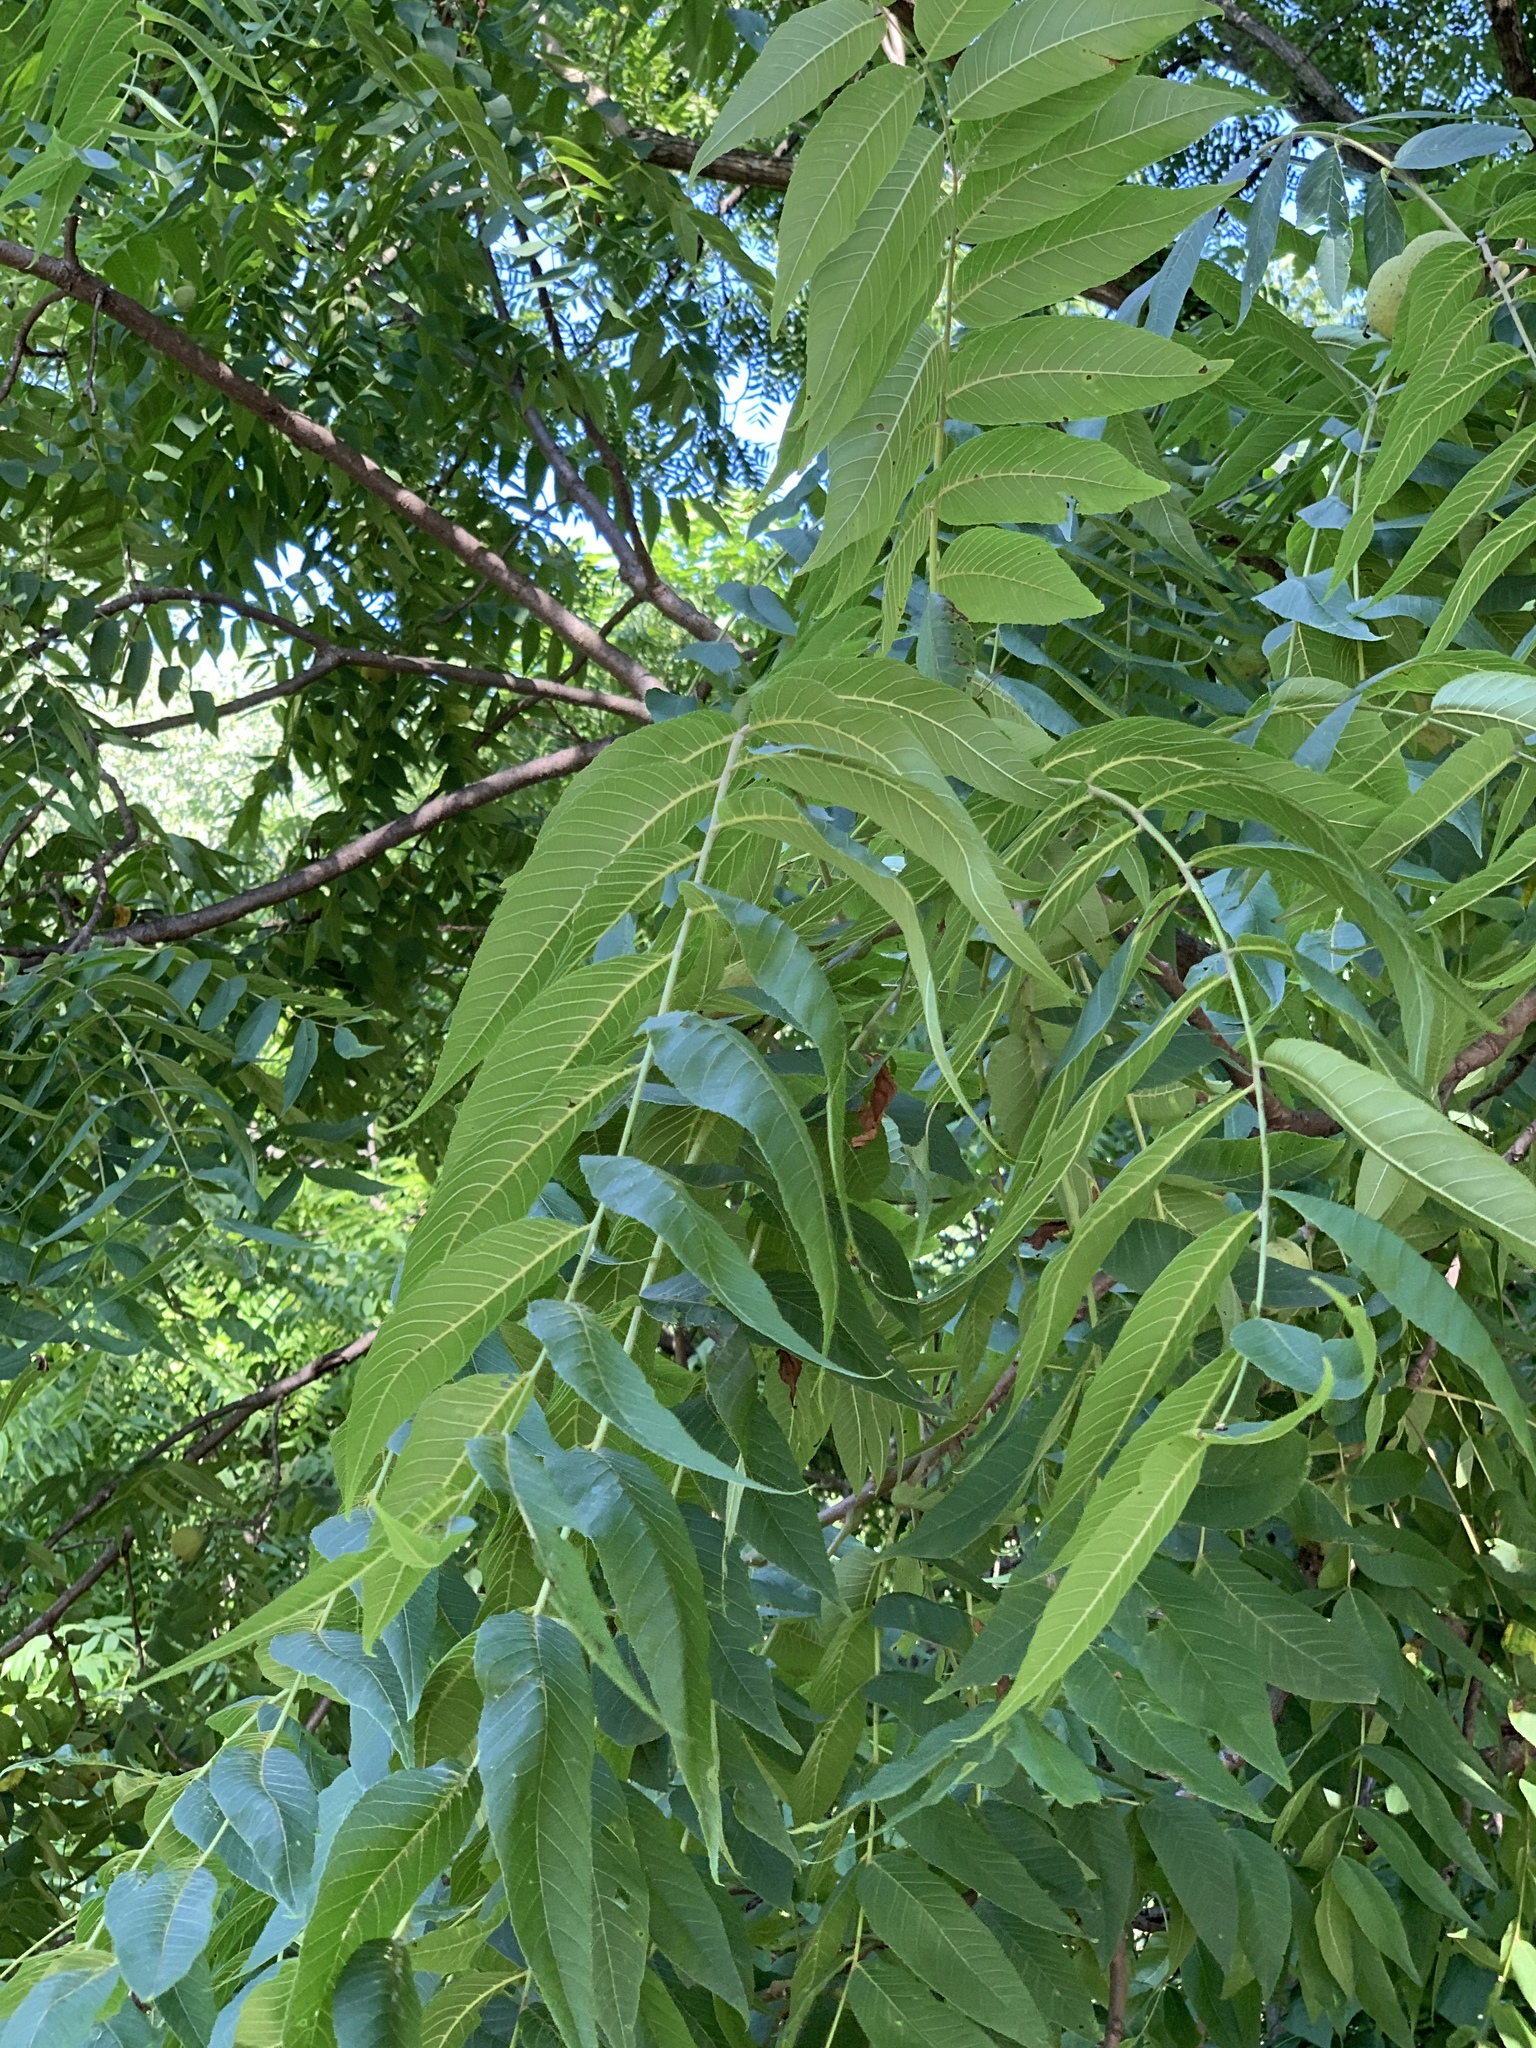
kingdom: Plantae
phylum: Tracheophyta
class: Magnoliopsida
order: Fagales
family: Juglandaceae
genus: Juglans
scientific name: Juglans nigra
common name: Black walnut
